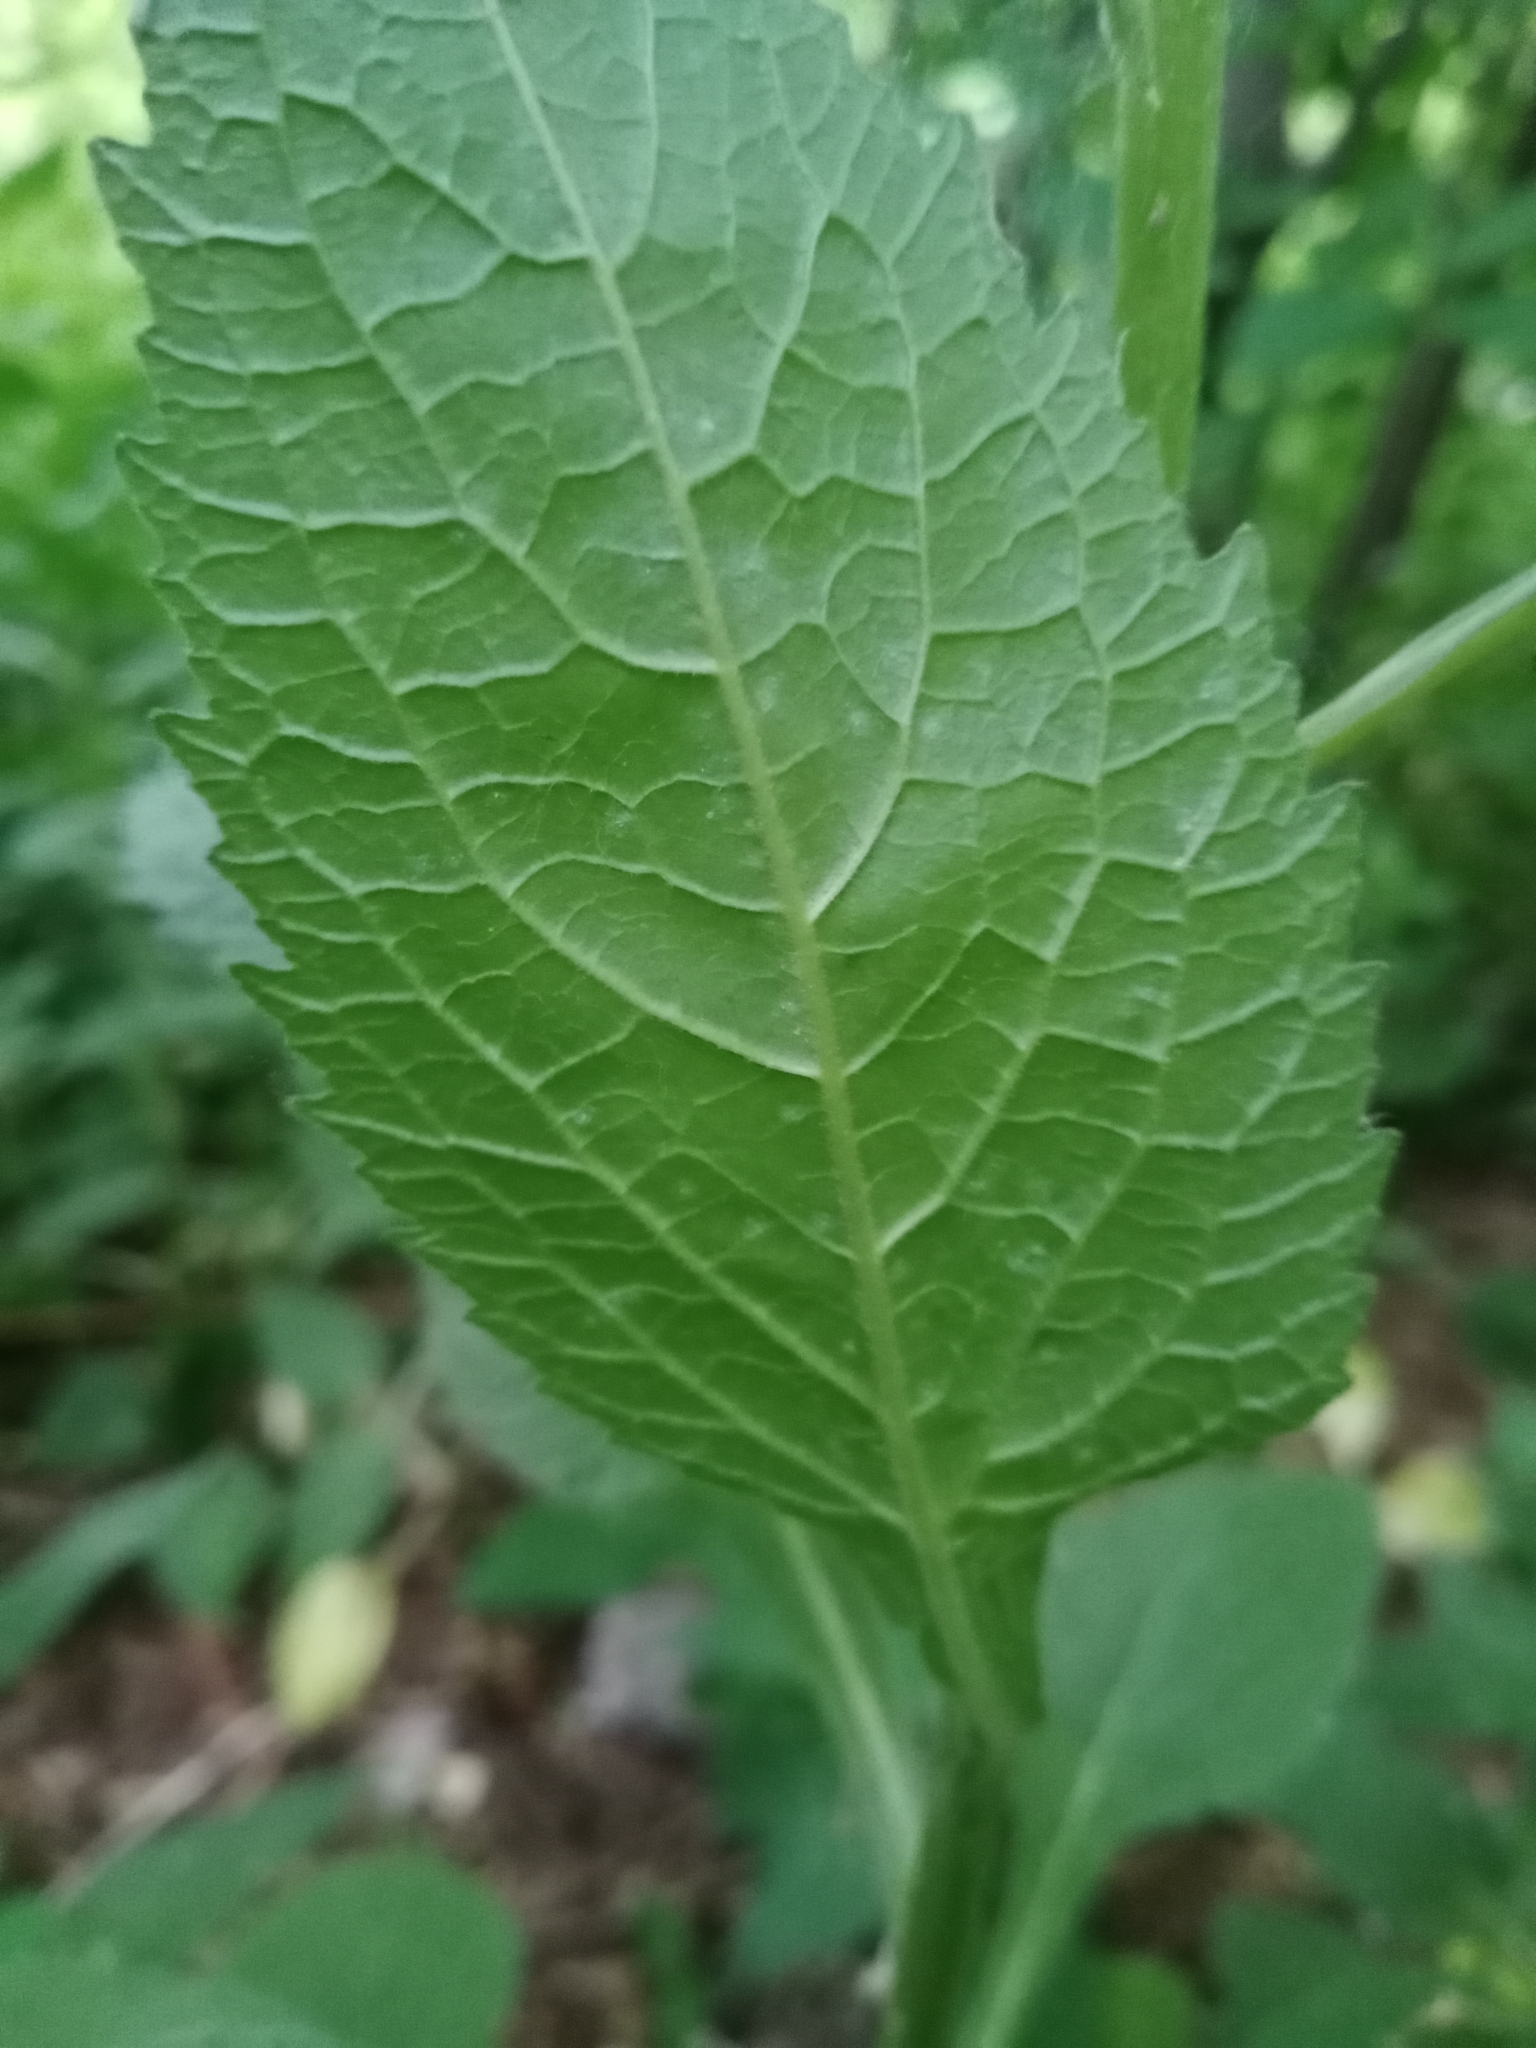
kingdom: Plantae
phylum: Tracheophyta
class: Magnoliopsida
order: Asterales
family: Campanulaceae
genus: Campanula
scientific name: Campanula latifolia
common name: Giant bellflower
